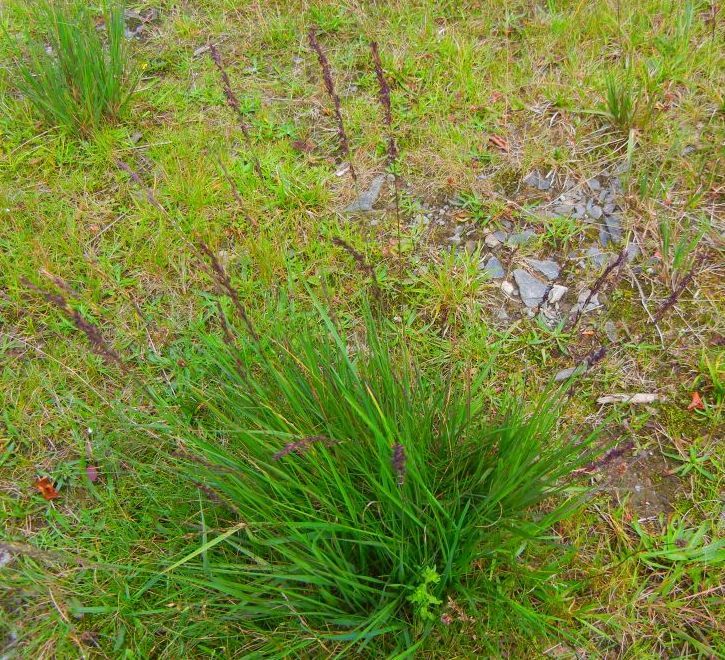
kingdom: Plantae
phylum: Tracheophyta
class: Liliopsida
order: Poales
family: Poaceae
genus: Molinia
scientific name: Molinia caerulea
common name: Purple moor-grass
